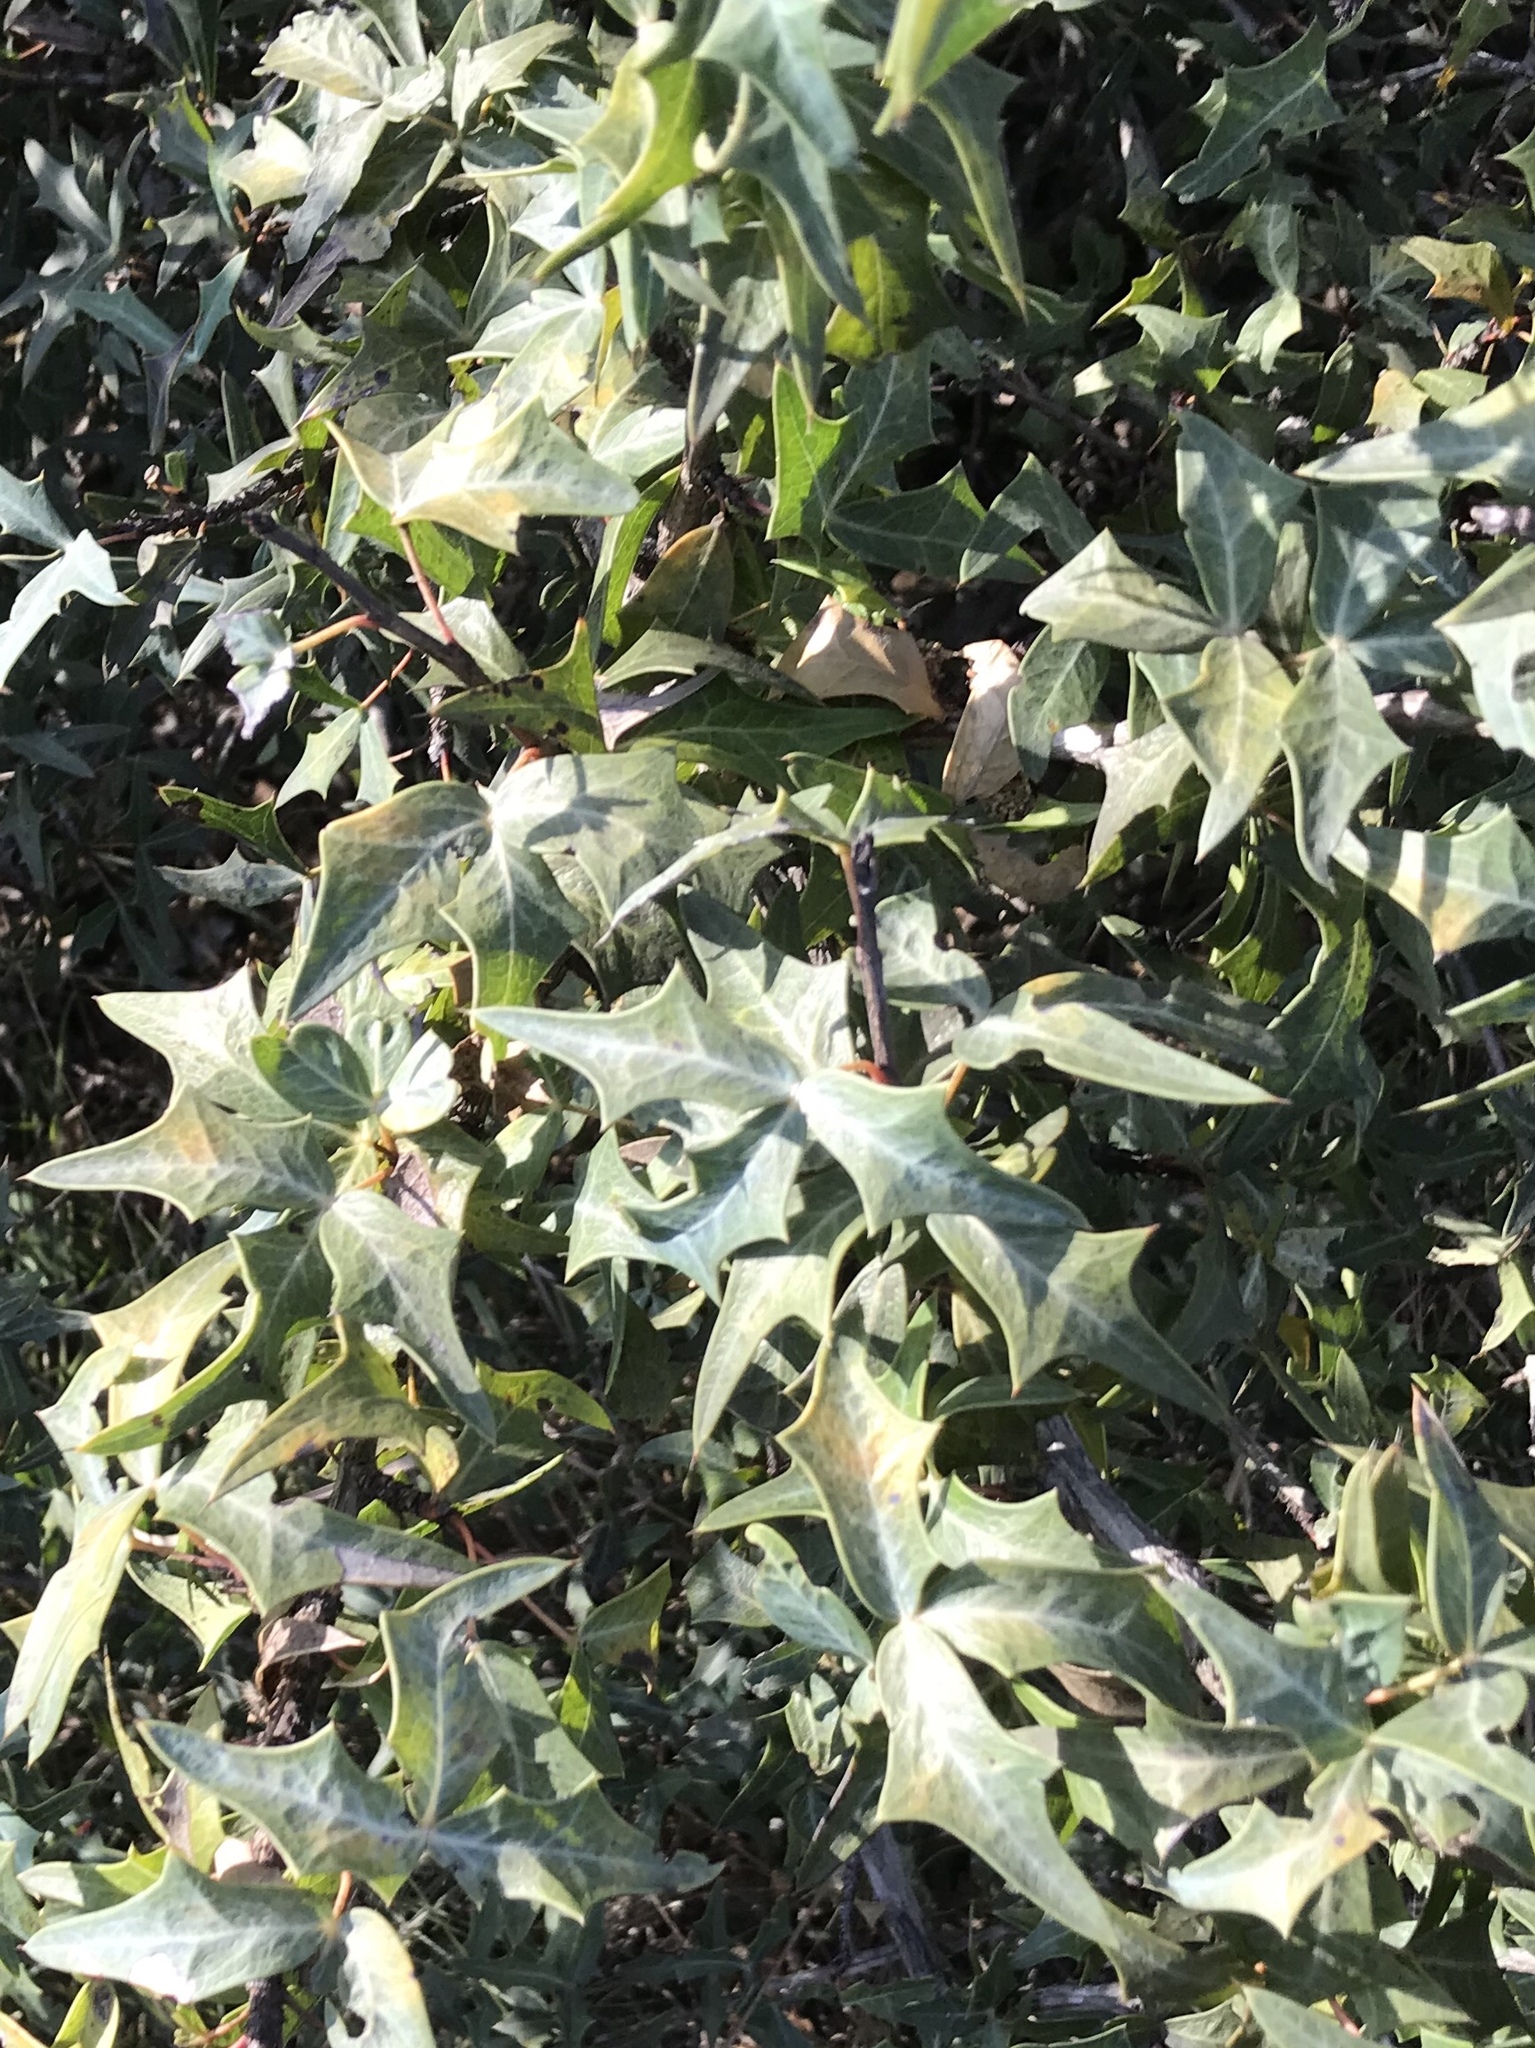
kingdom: Plantae
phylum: Tracheophyta
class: Magnoliopsida
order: Ranunculales
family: Berberidaceae
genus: Alloberberis
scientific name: Alloberberis trifoliolata
